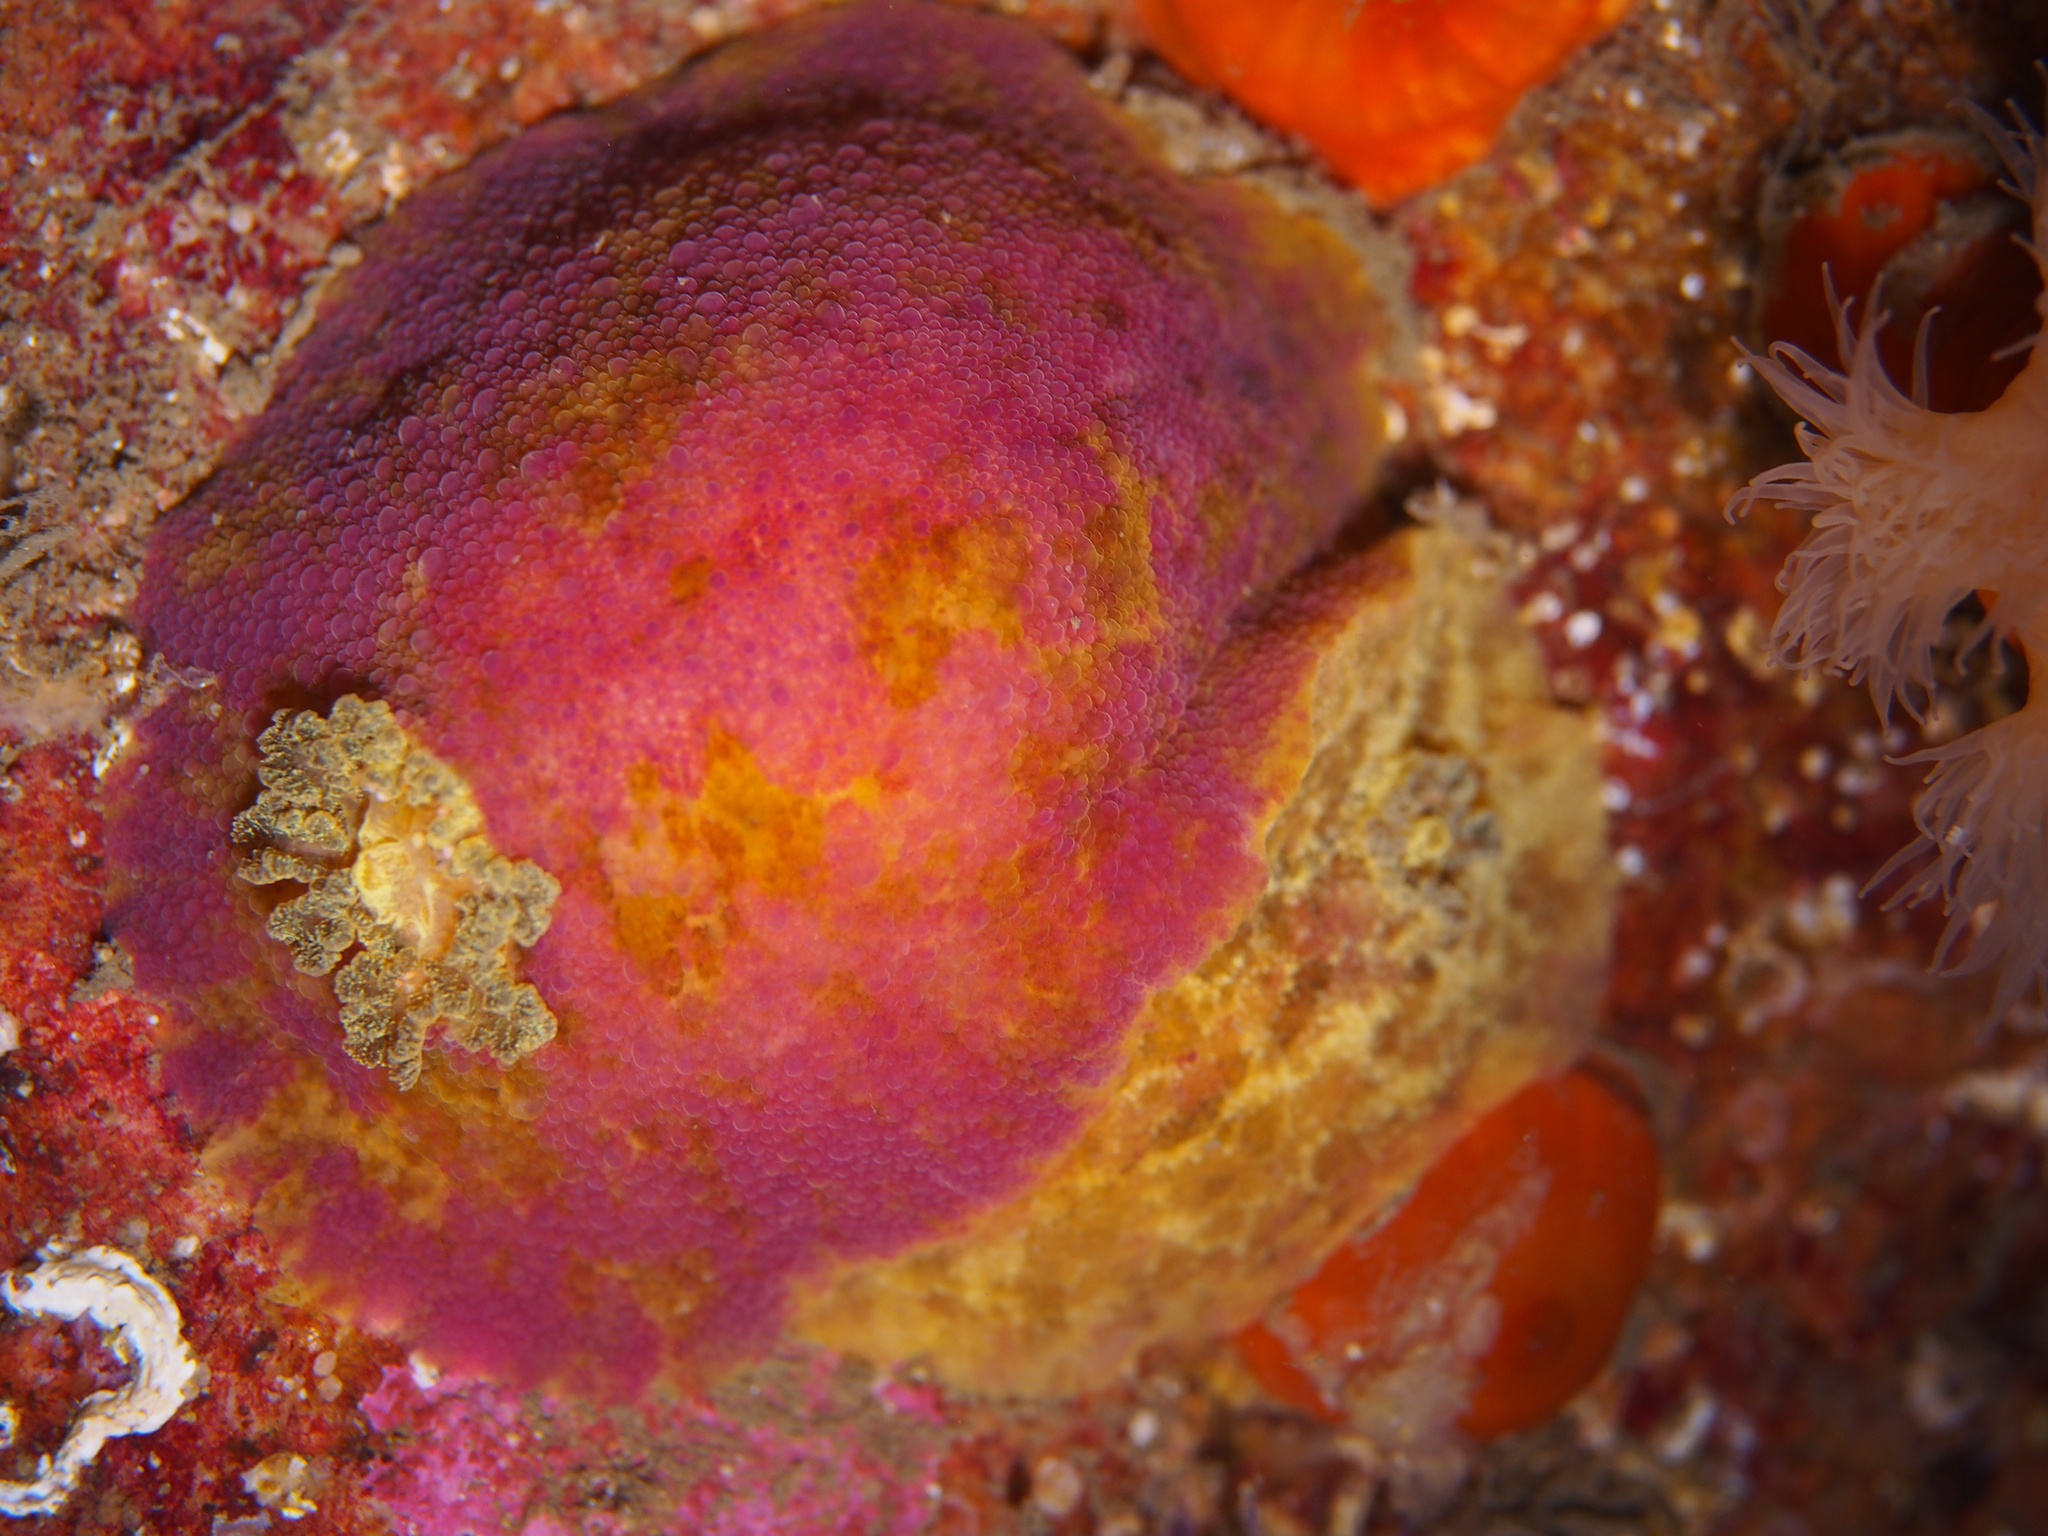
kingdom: Animalia
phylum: Mollusca
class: Gastropoda
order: Nudibranchia
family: Dorididae
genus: Doris
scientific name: Doris pseudoargus
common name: Sea lemon
